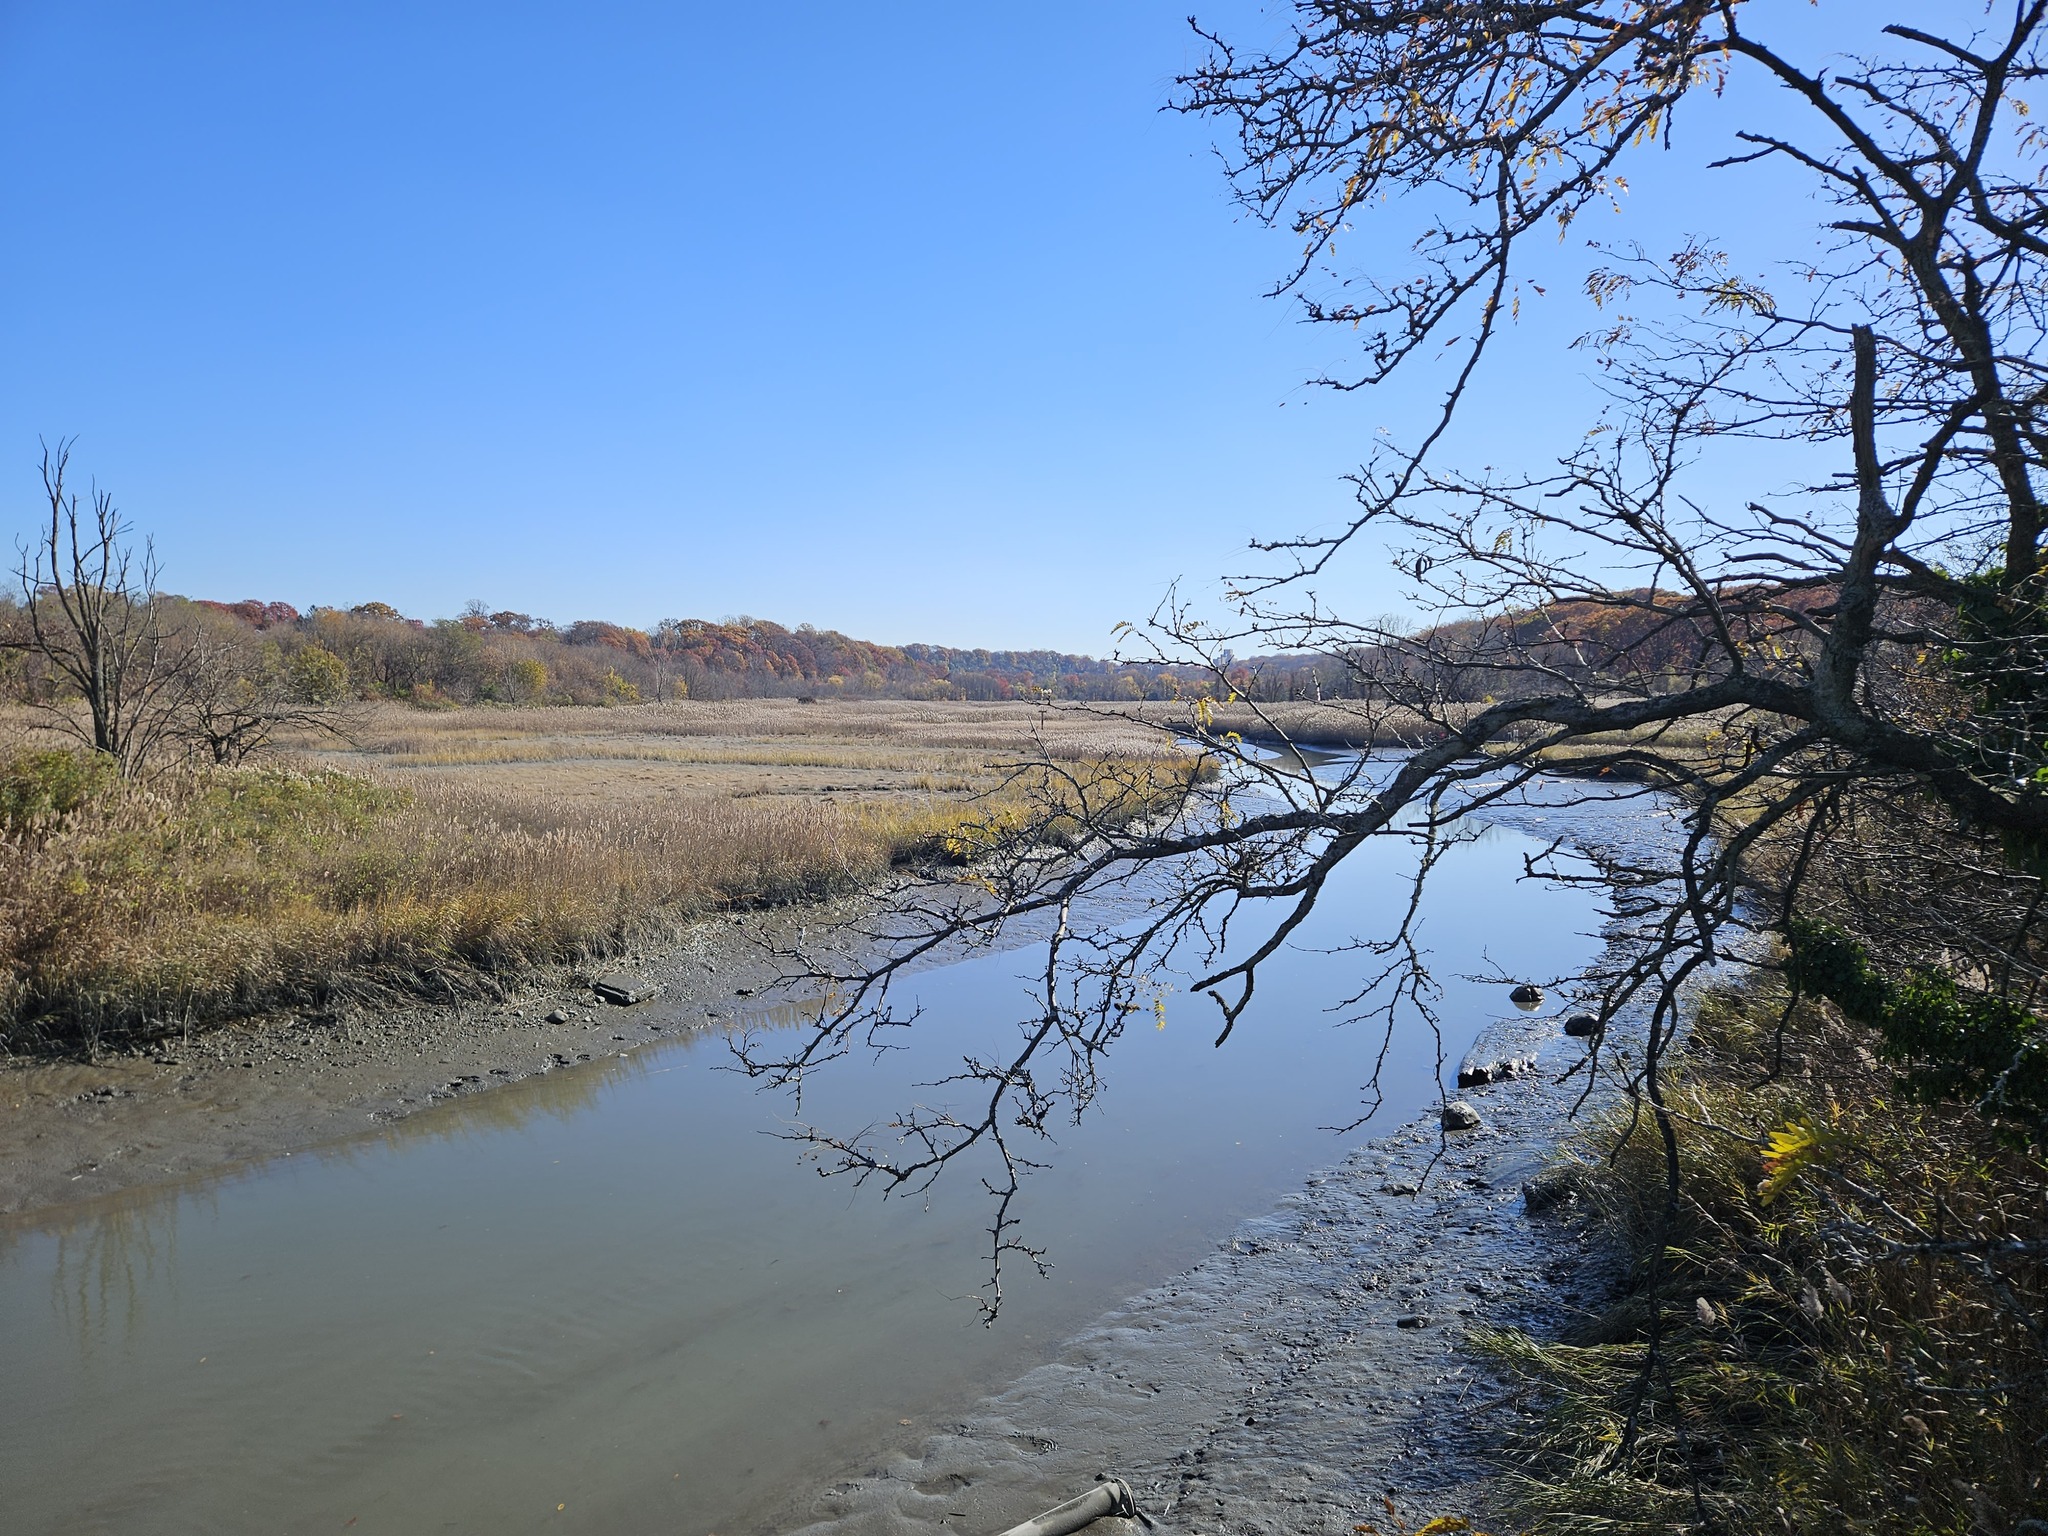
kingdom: Plantae
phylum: Tracheophyta
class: Magnoliopsida
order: Fabales
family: Fabaceae
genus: Gleditsia
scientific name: Gleditsia triacanthos
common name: Common honeylocust
